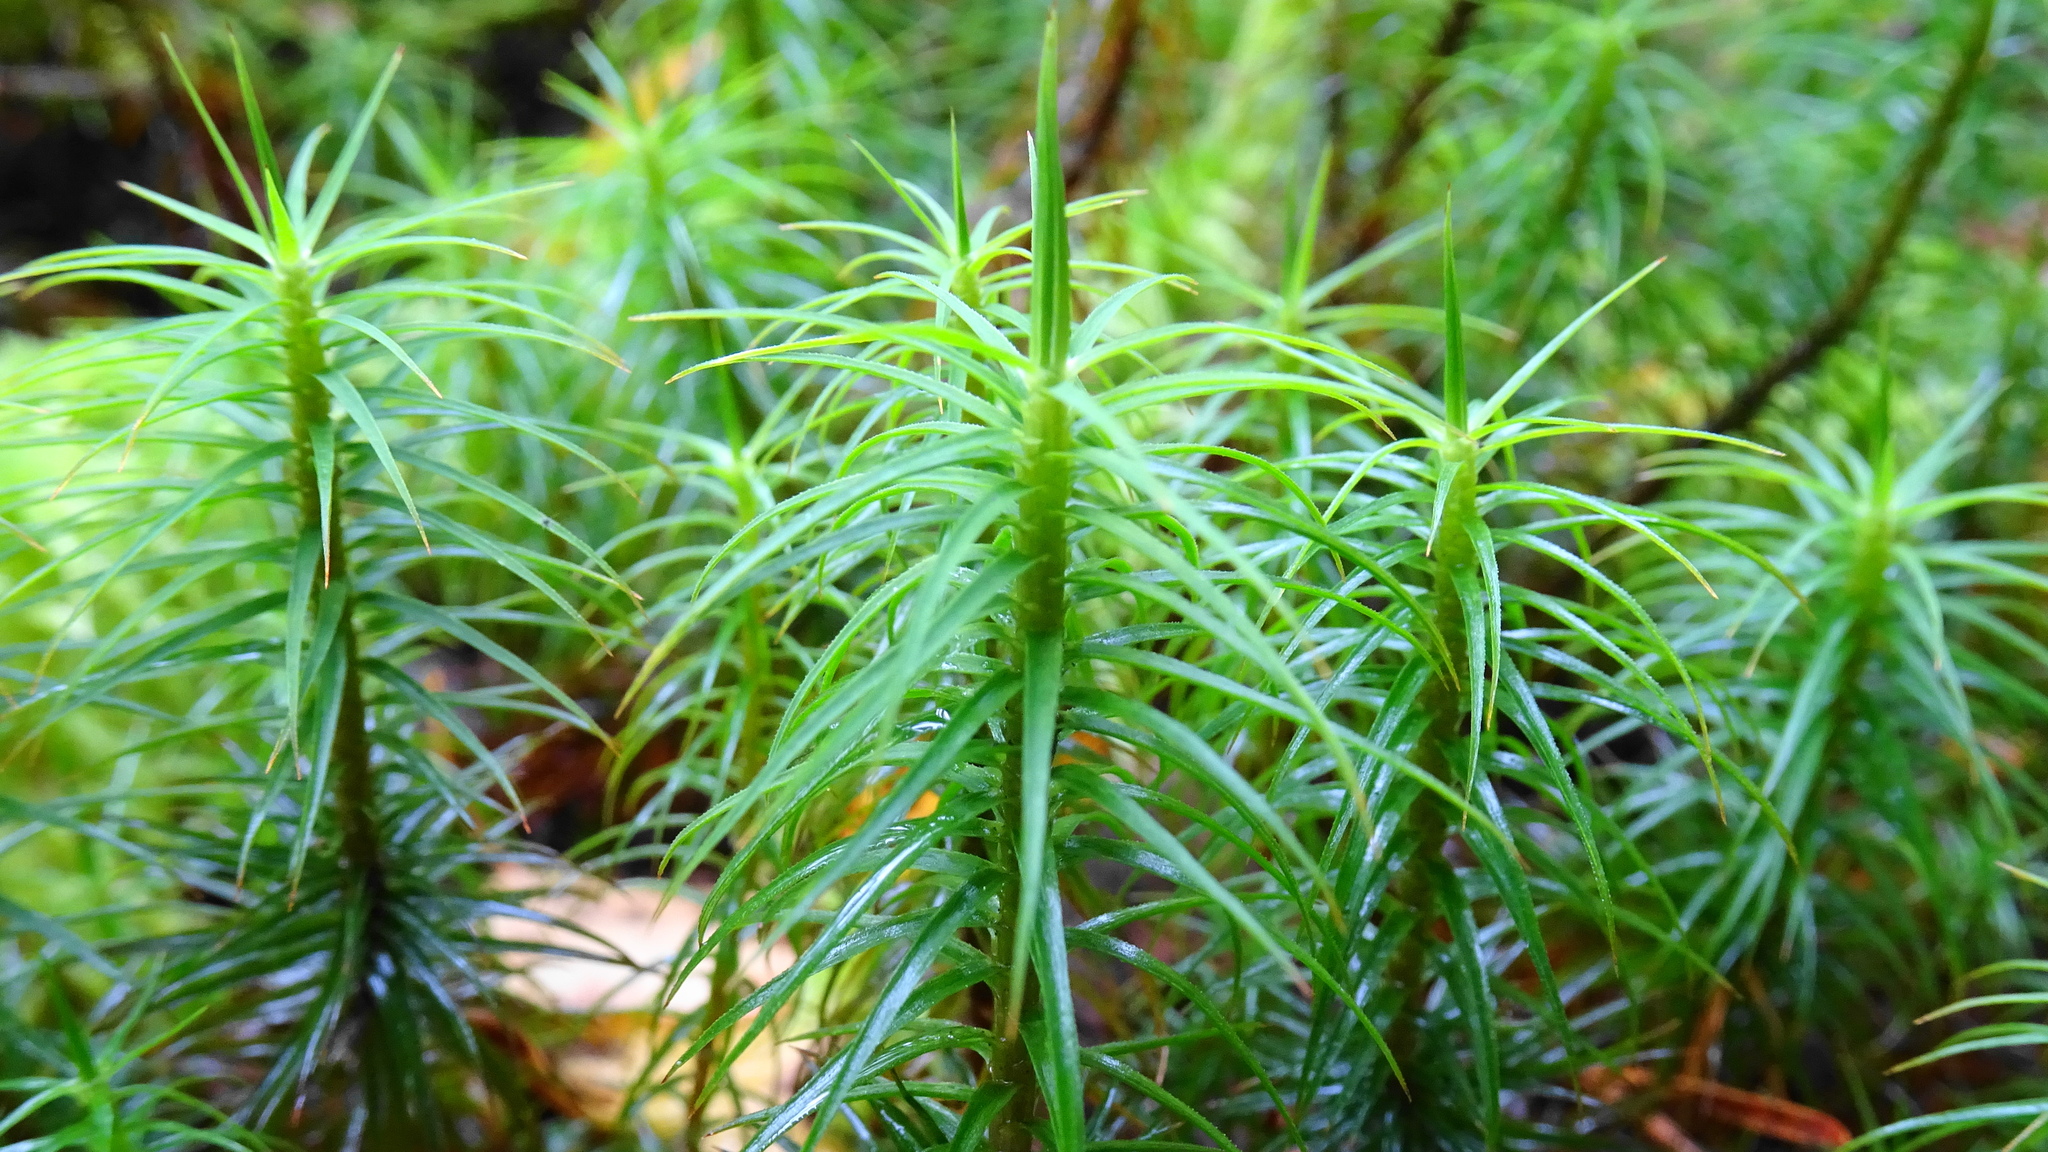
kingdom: Plantae
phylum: Bryophyta
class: Polytrichopsida
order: Polytrichales
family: Polytrichaceae
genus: Polytrichum
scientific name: Polytrichum formosum
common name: Bank haircap moss
